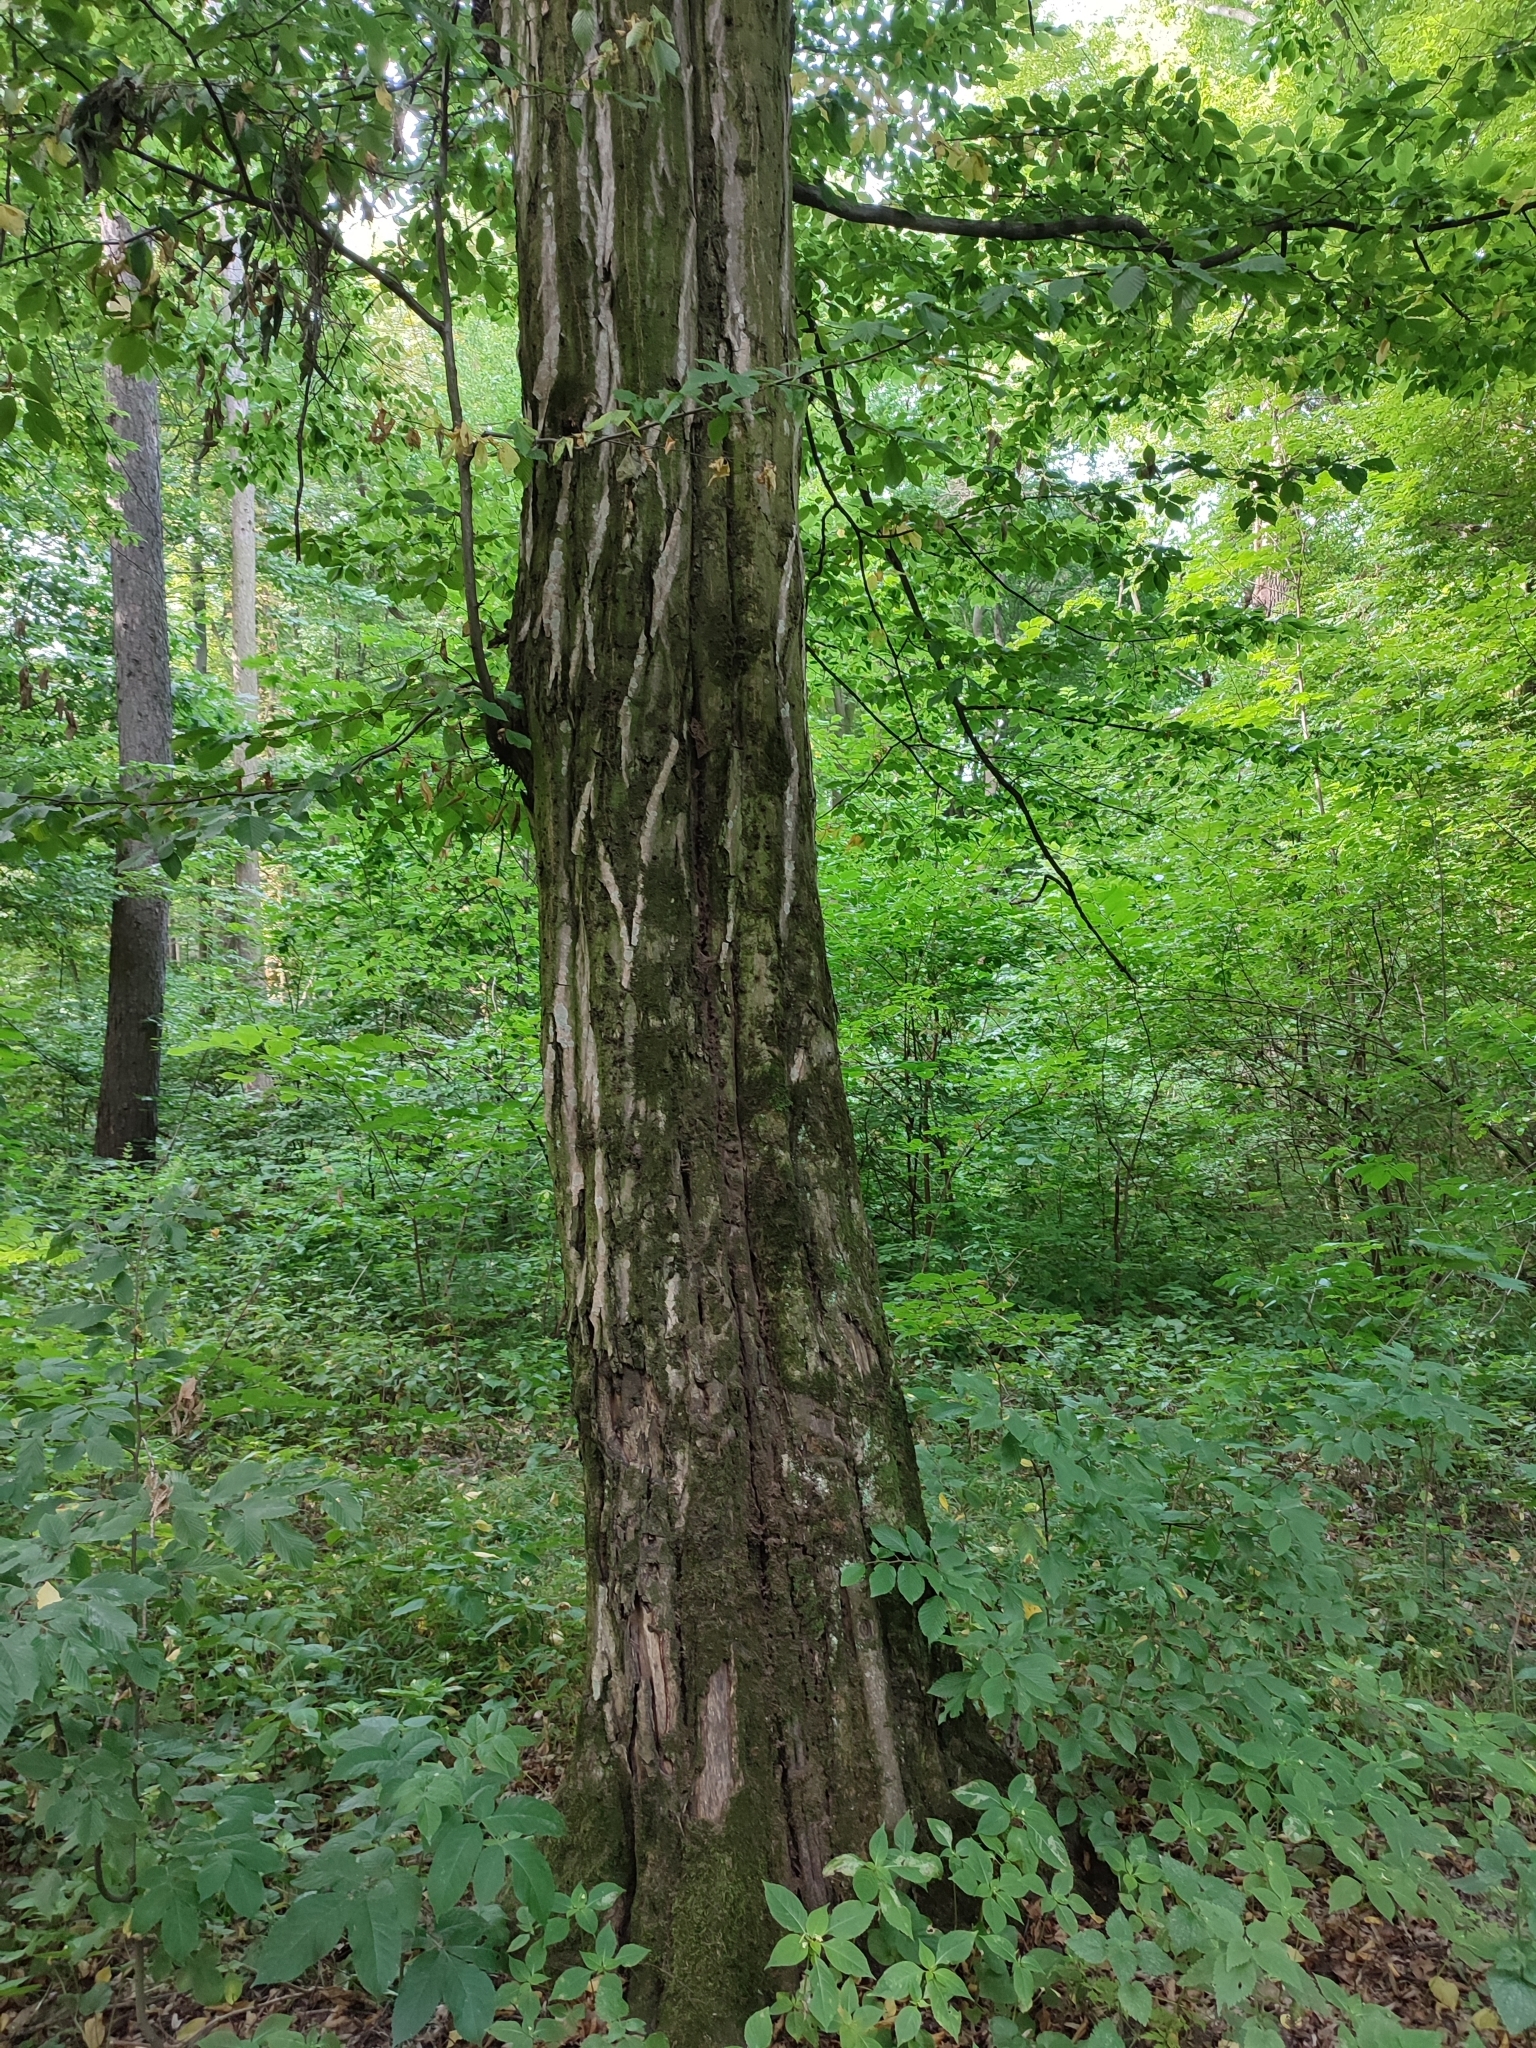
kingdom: Plantae
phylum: Tracheophyta
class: Magnoliopsida
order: Fagales
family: Betulaceae
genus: Carpinus
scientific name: Carpinus betulus
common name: Hornbeam
